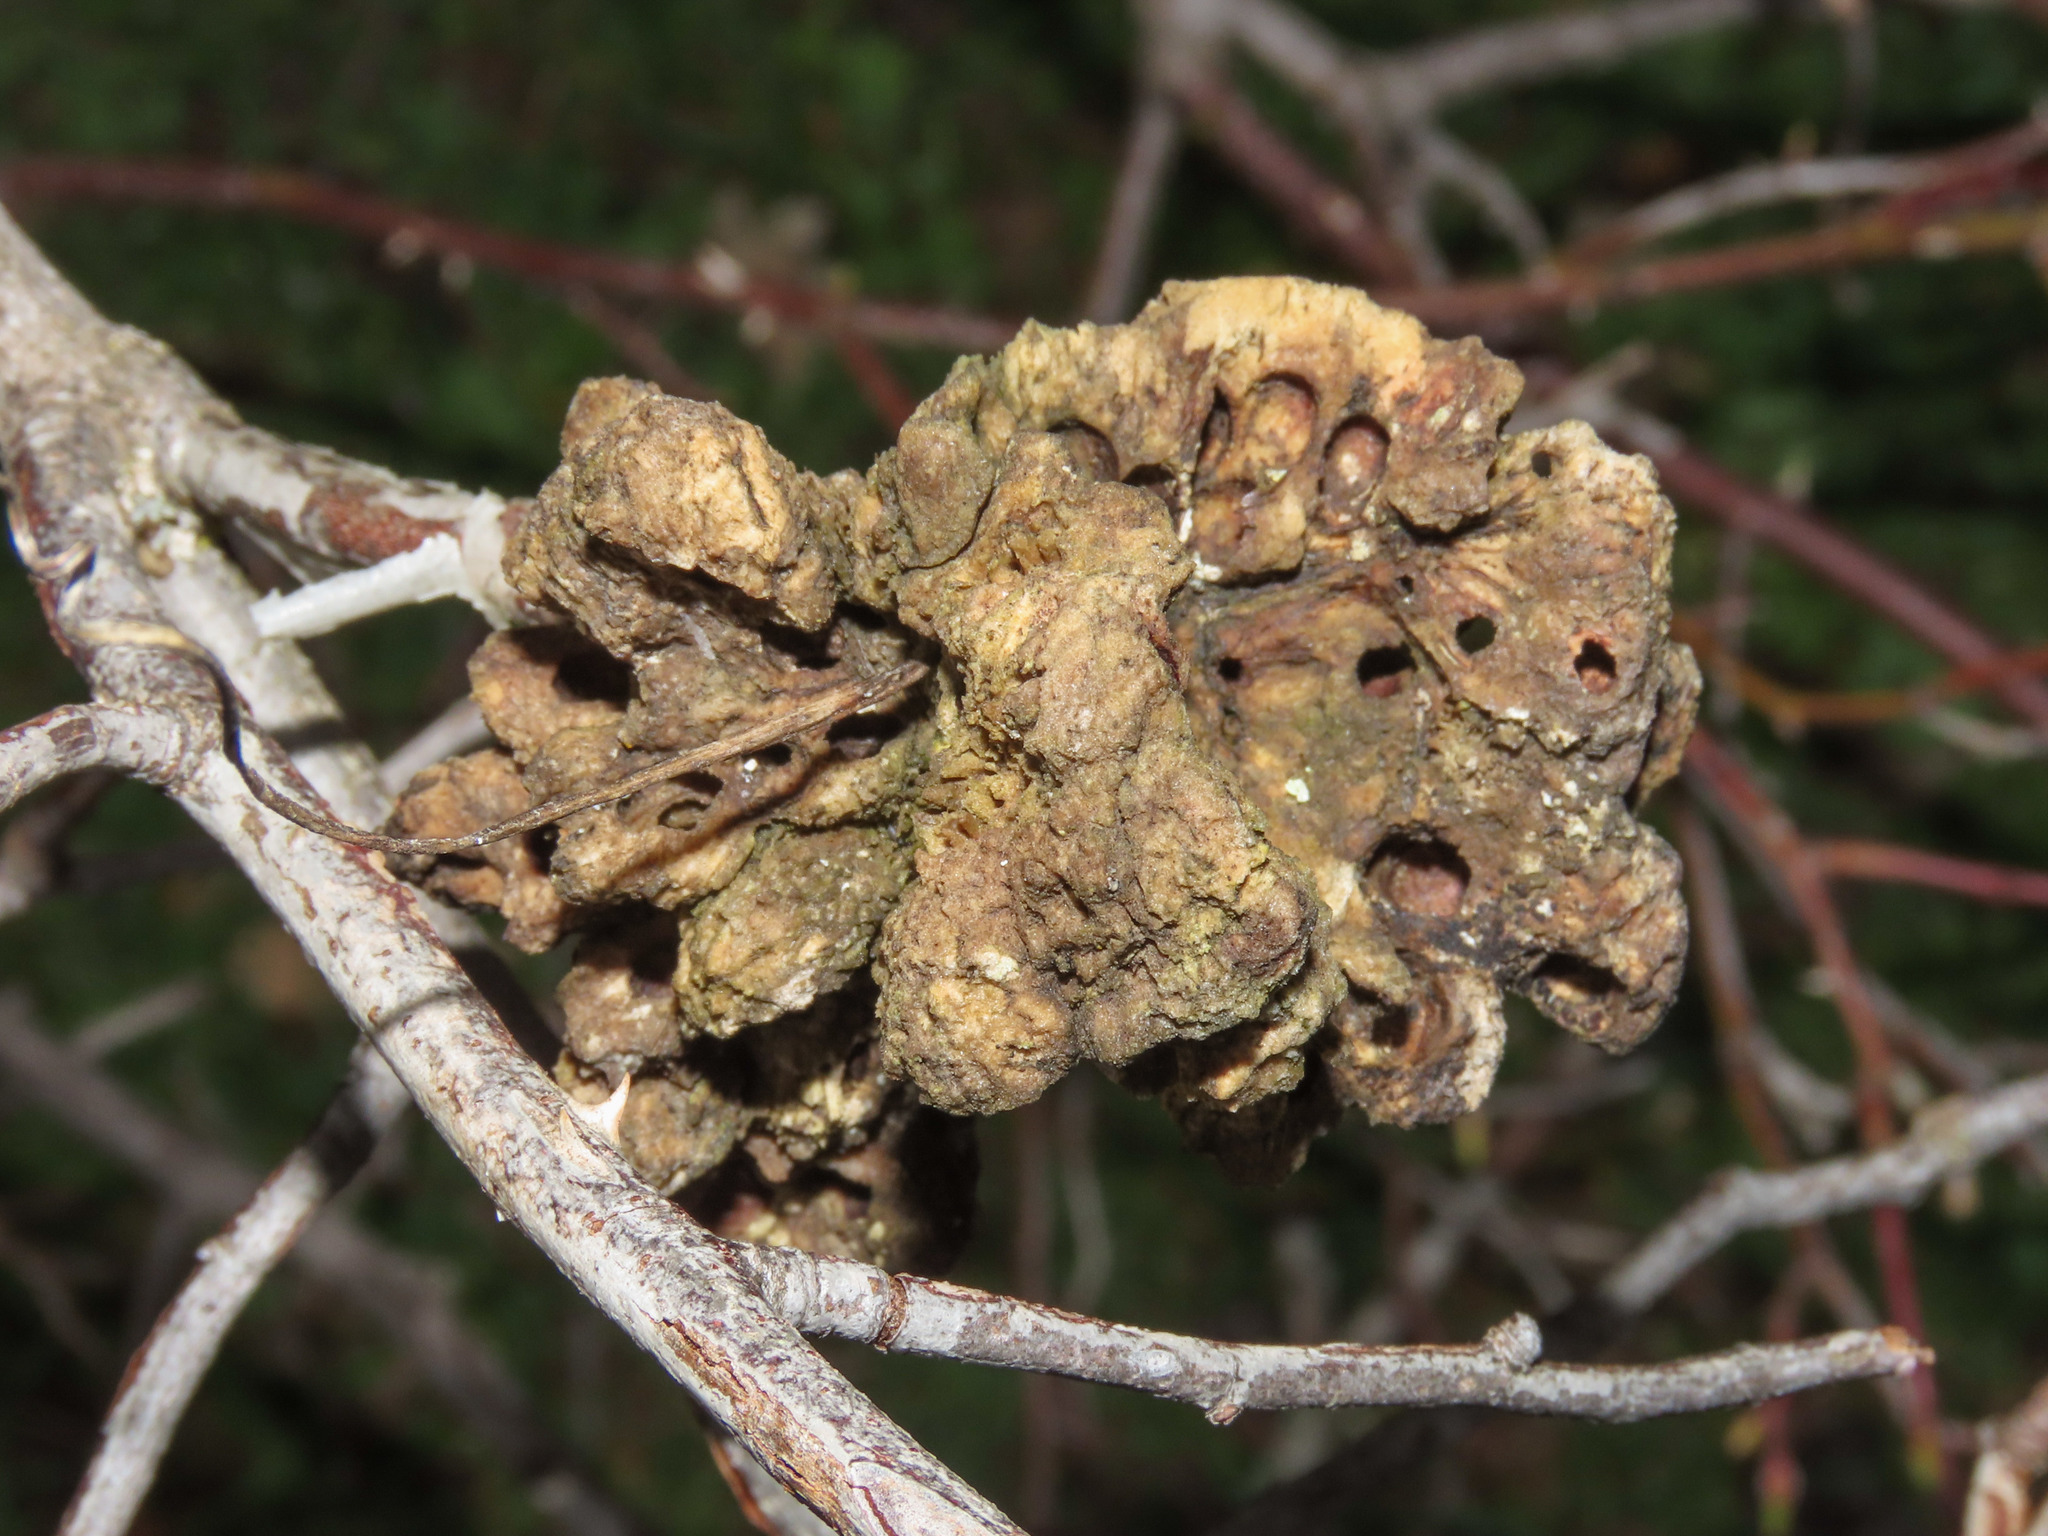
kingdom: Animalia
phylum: Arthropoda
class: Insecta
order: Hymenoptera
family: Cynipidae
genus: Diplolepis
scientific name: Diplolepis rosae
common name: Bedeguar gall
